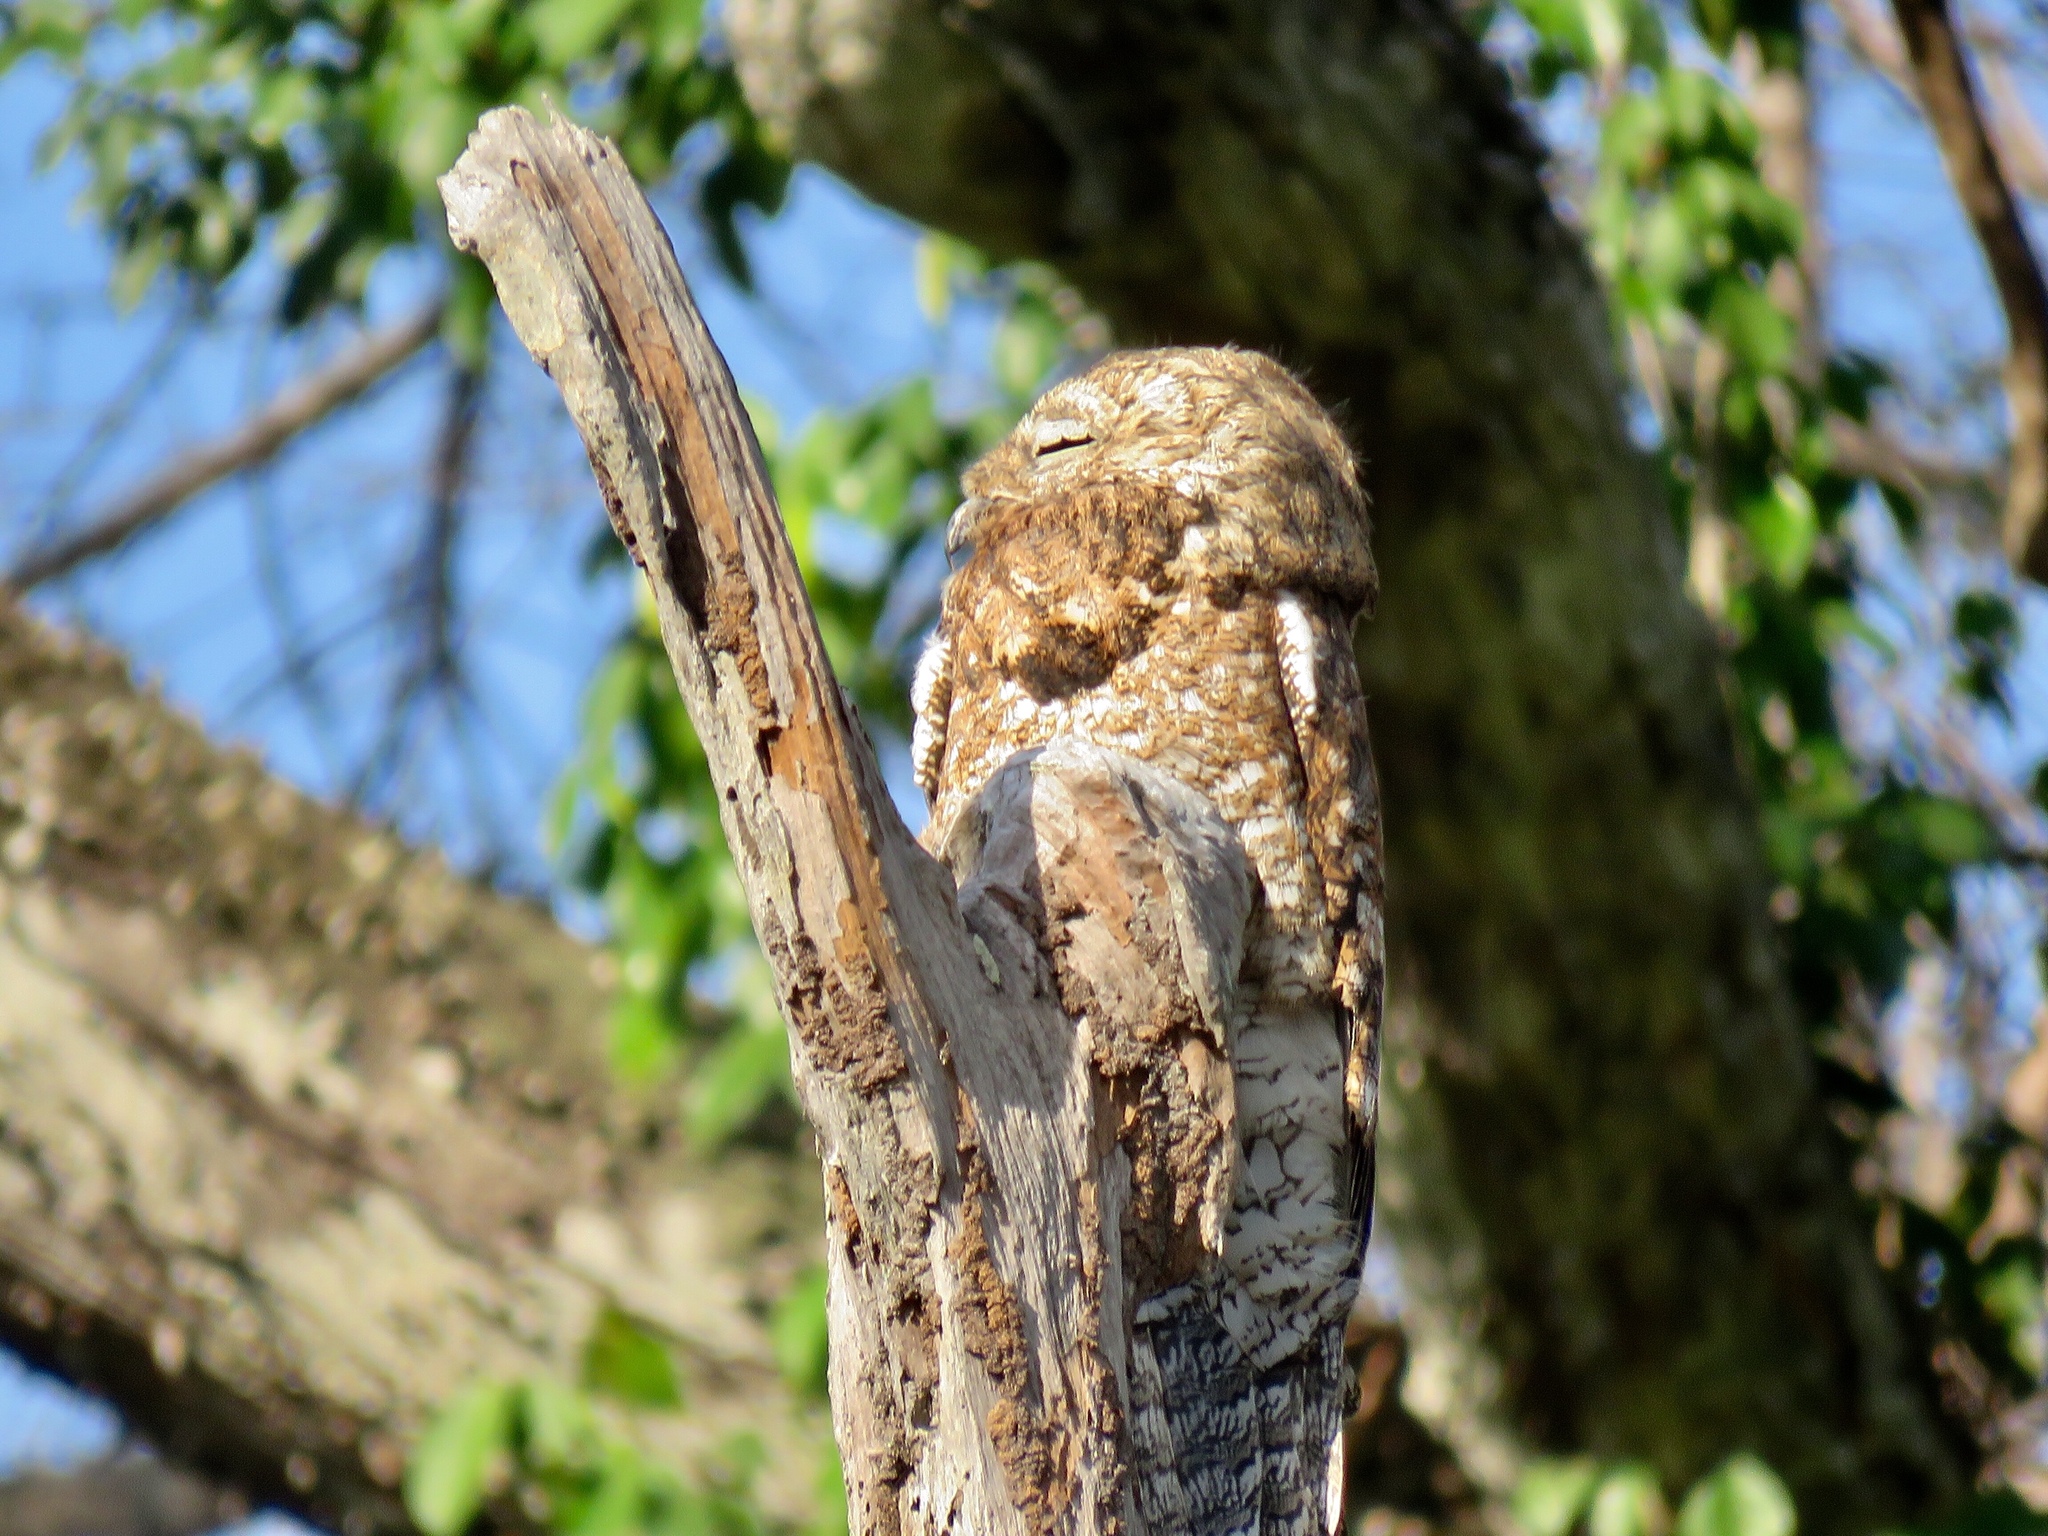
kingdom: Animalia
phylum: Chordata
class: Aves
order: Nyctibiiformes
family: Nyctibiidae
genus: Nyctibius
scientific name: Nyctibius grandis
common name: Great potoo
